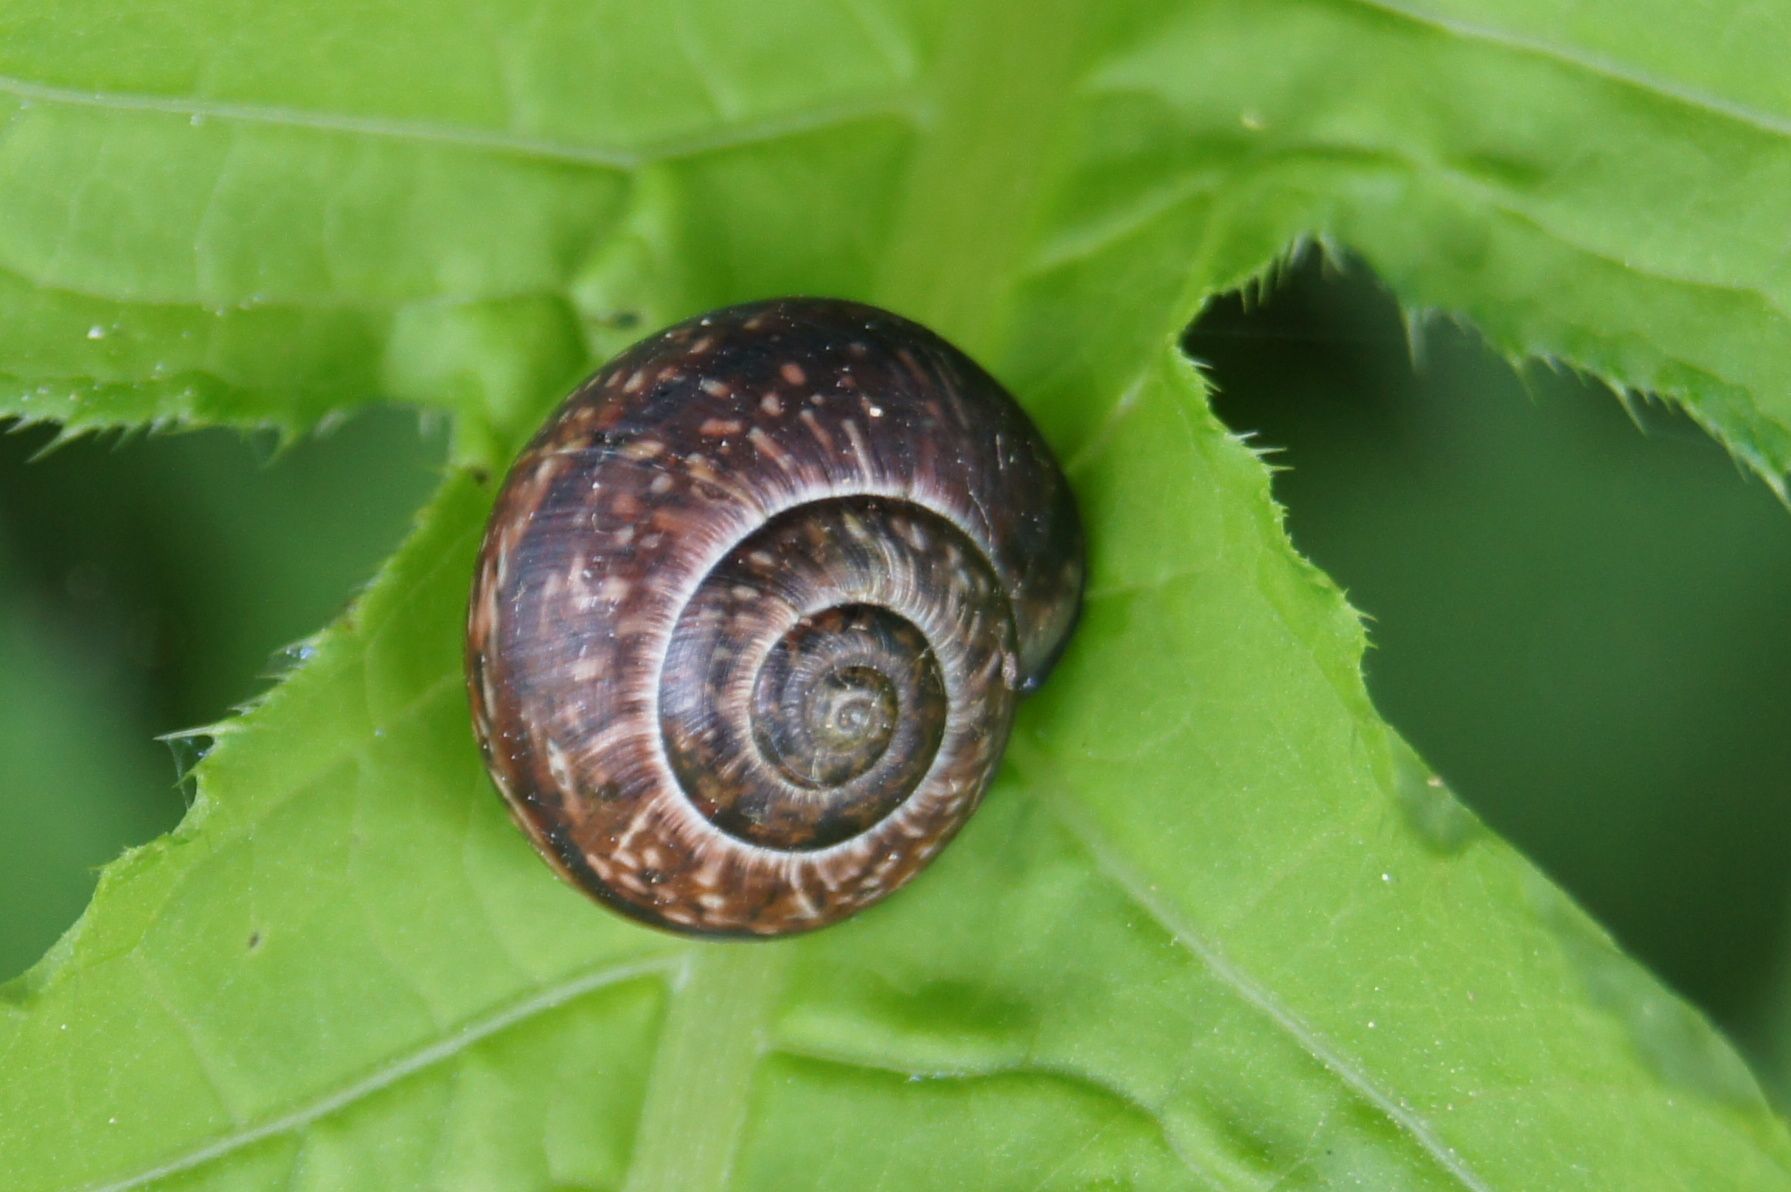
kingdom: Animalia
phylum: Mollusca
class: Gastropoda
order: Stylommatophora
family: Helicidae
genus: Arianta
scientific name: Arianta arbustorum
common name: Copse snail
